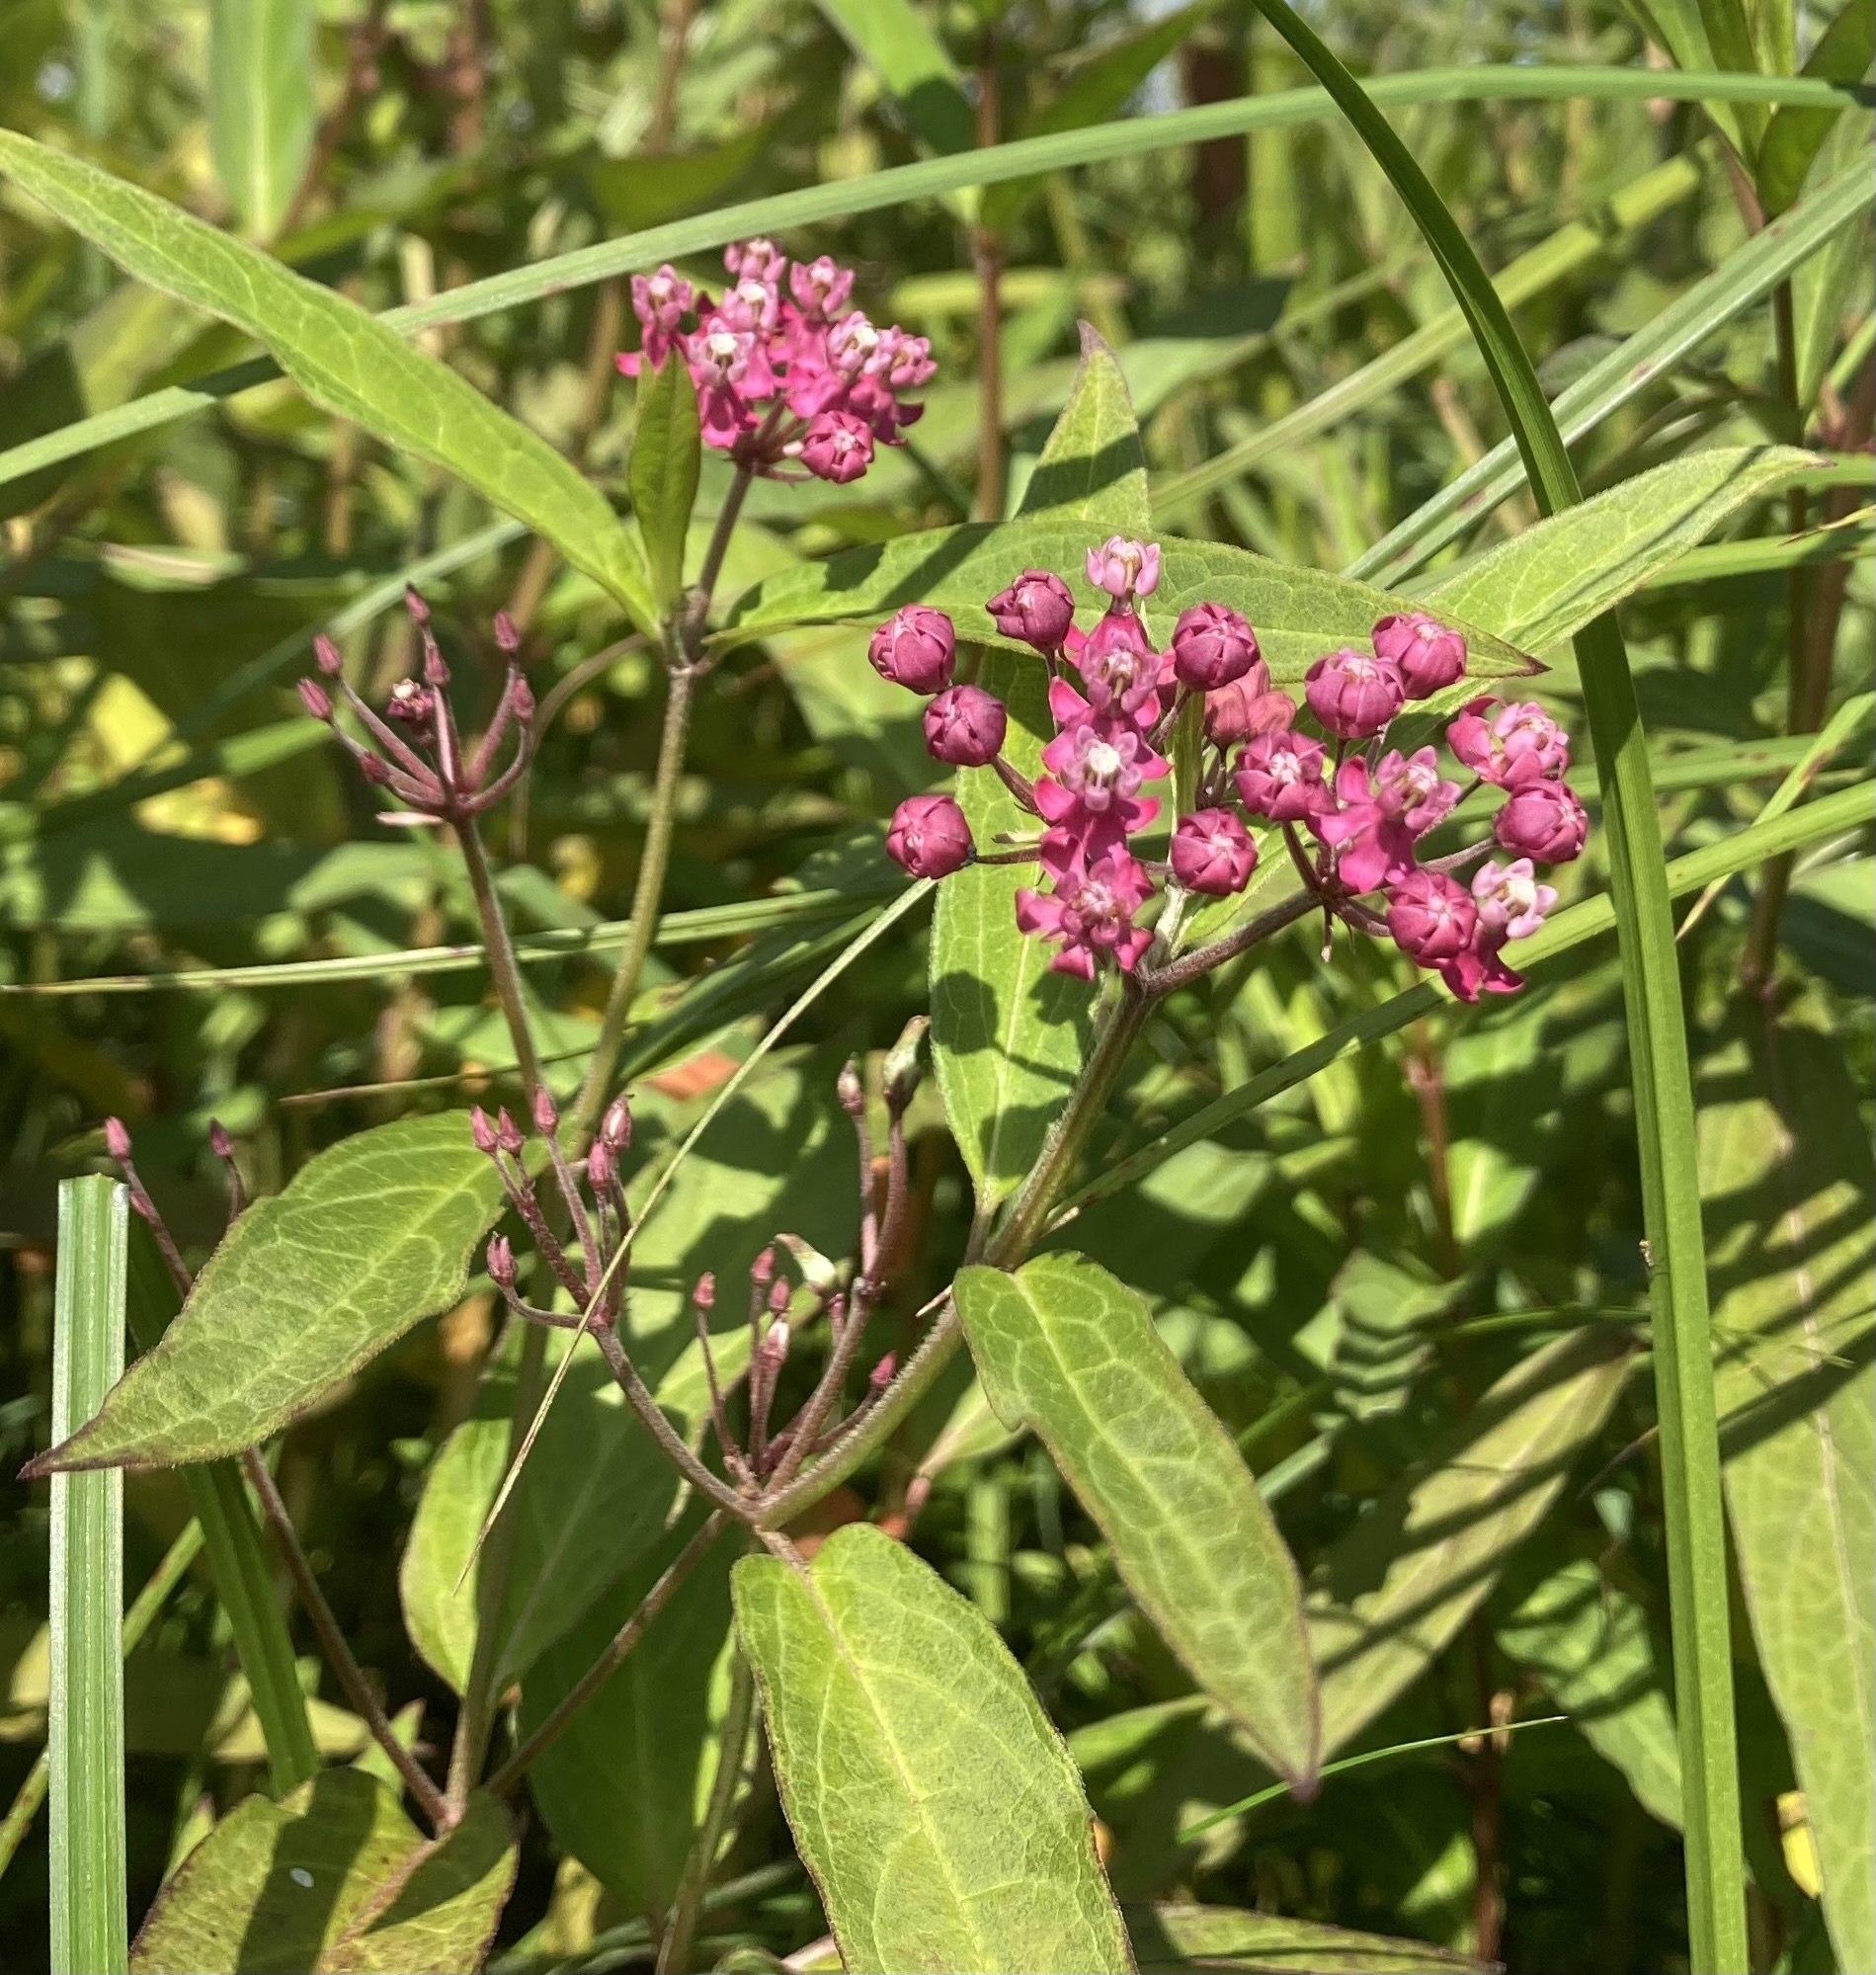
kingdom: Plantae
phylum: Tracheophyta
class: Magnoliopsida
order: Gentianales
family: Apocynaceae
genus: Asclepias
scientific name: Asclepias incarnata
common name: Swamp milkweed
